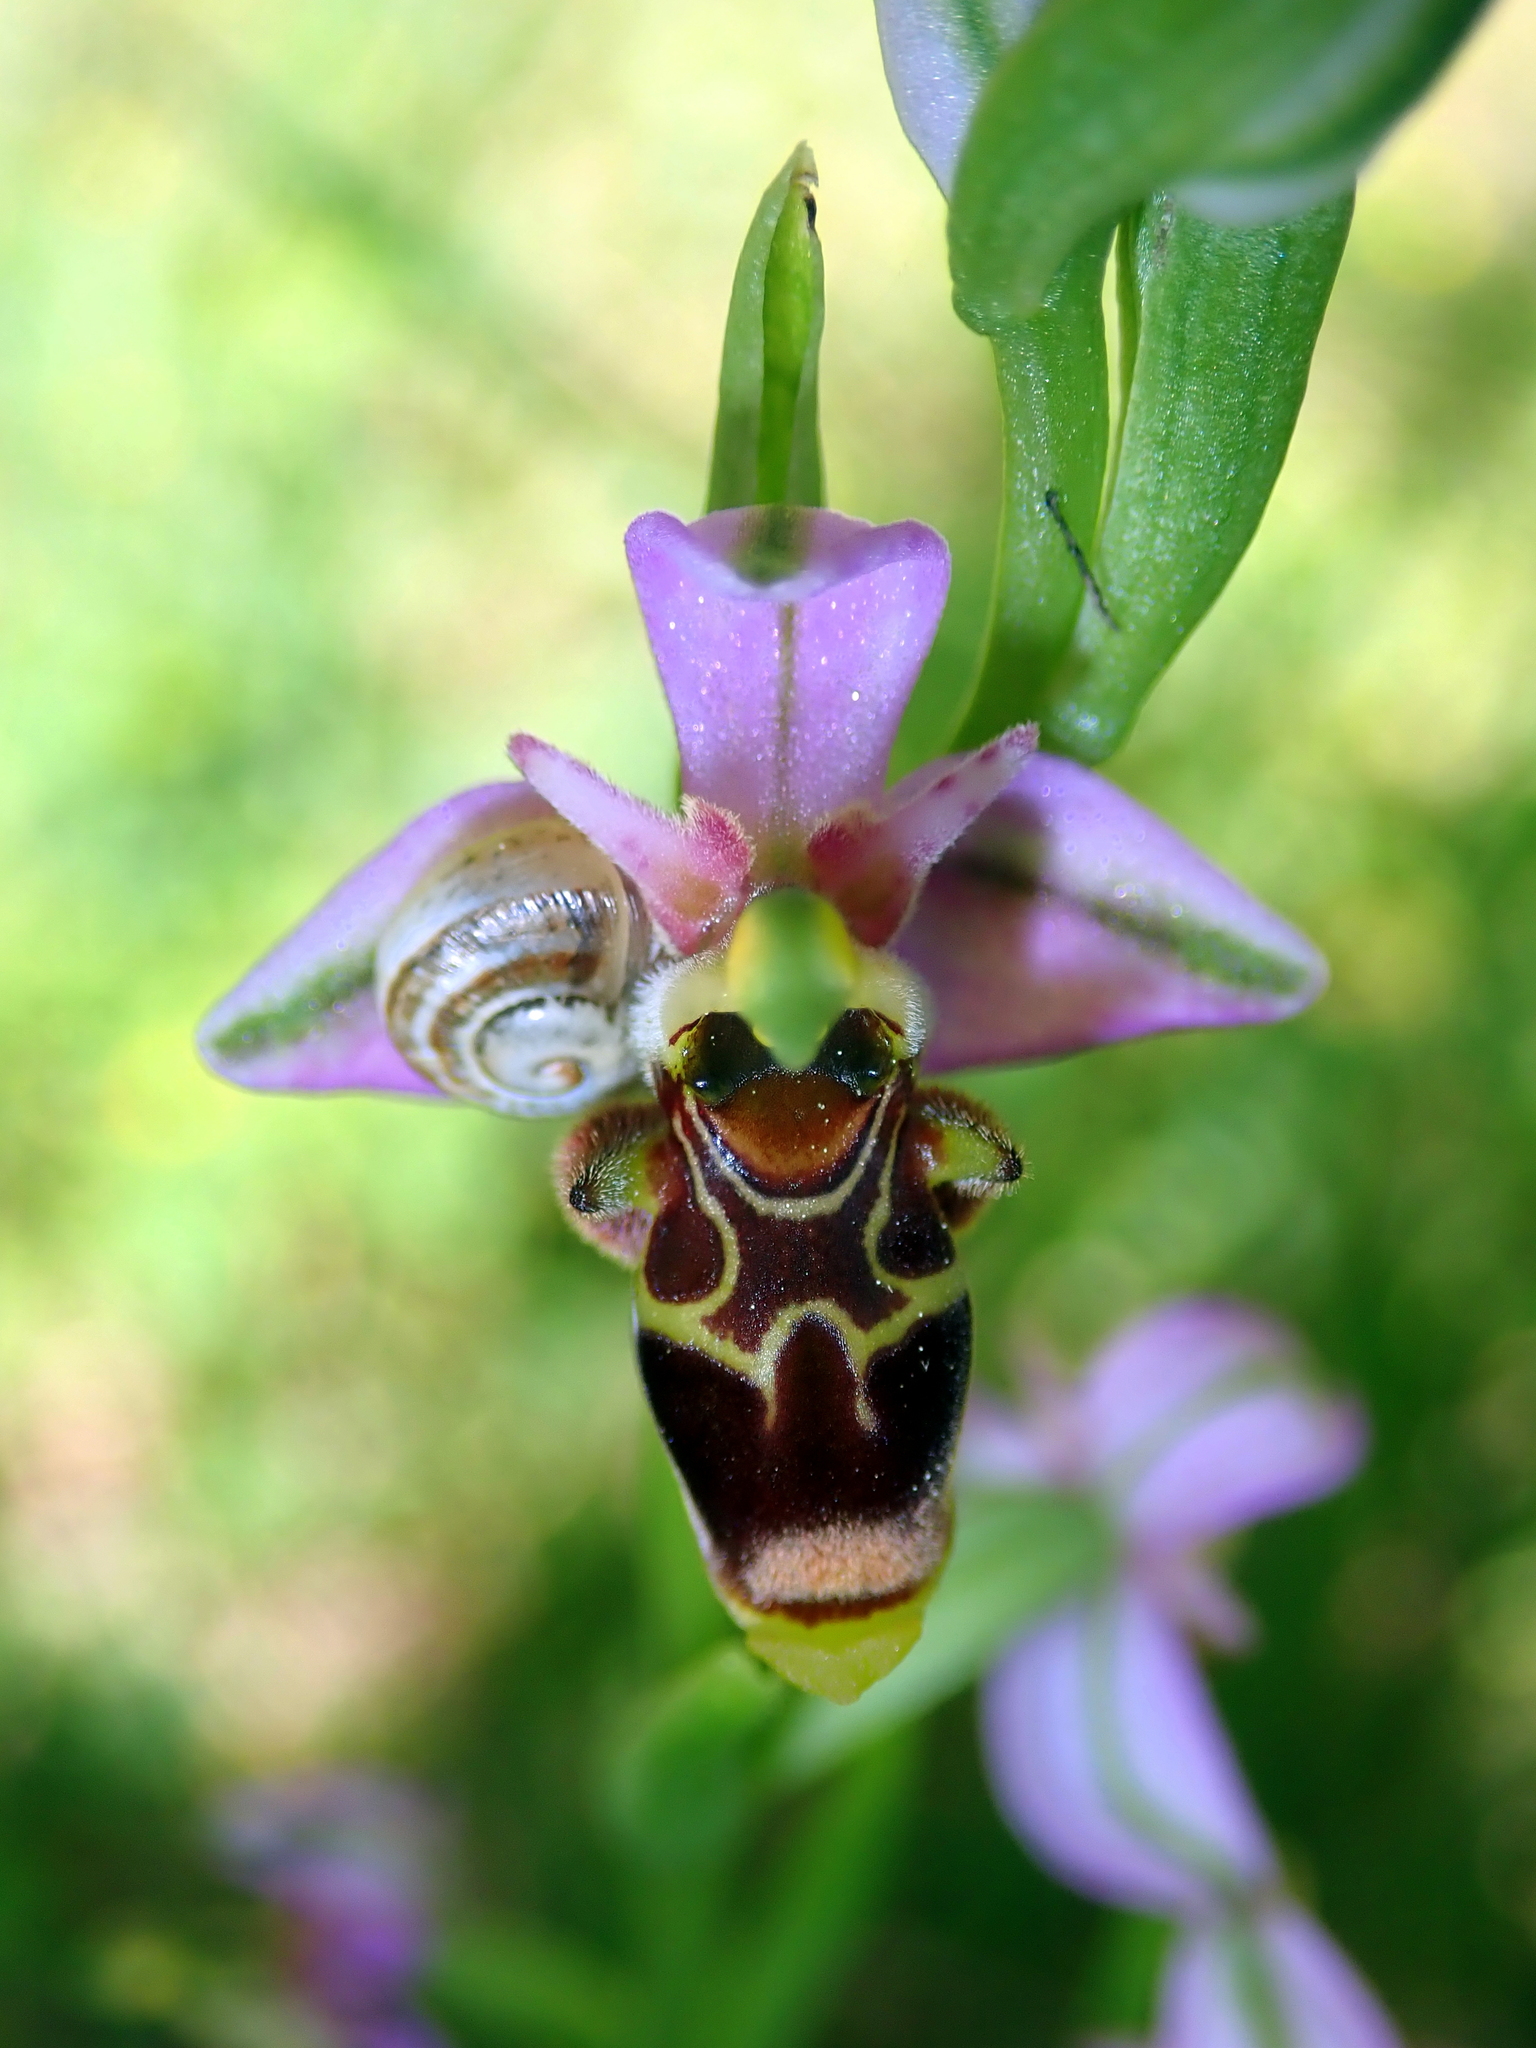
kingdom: Plantae
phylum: Tracheophyta
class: Liliopsida
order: Asparagales
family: Orchidaceae
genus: Ophrys
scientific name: Ophrys scolopax
